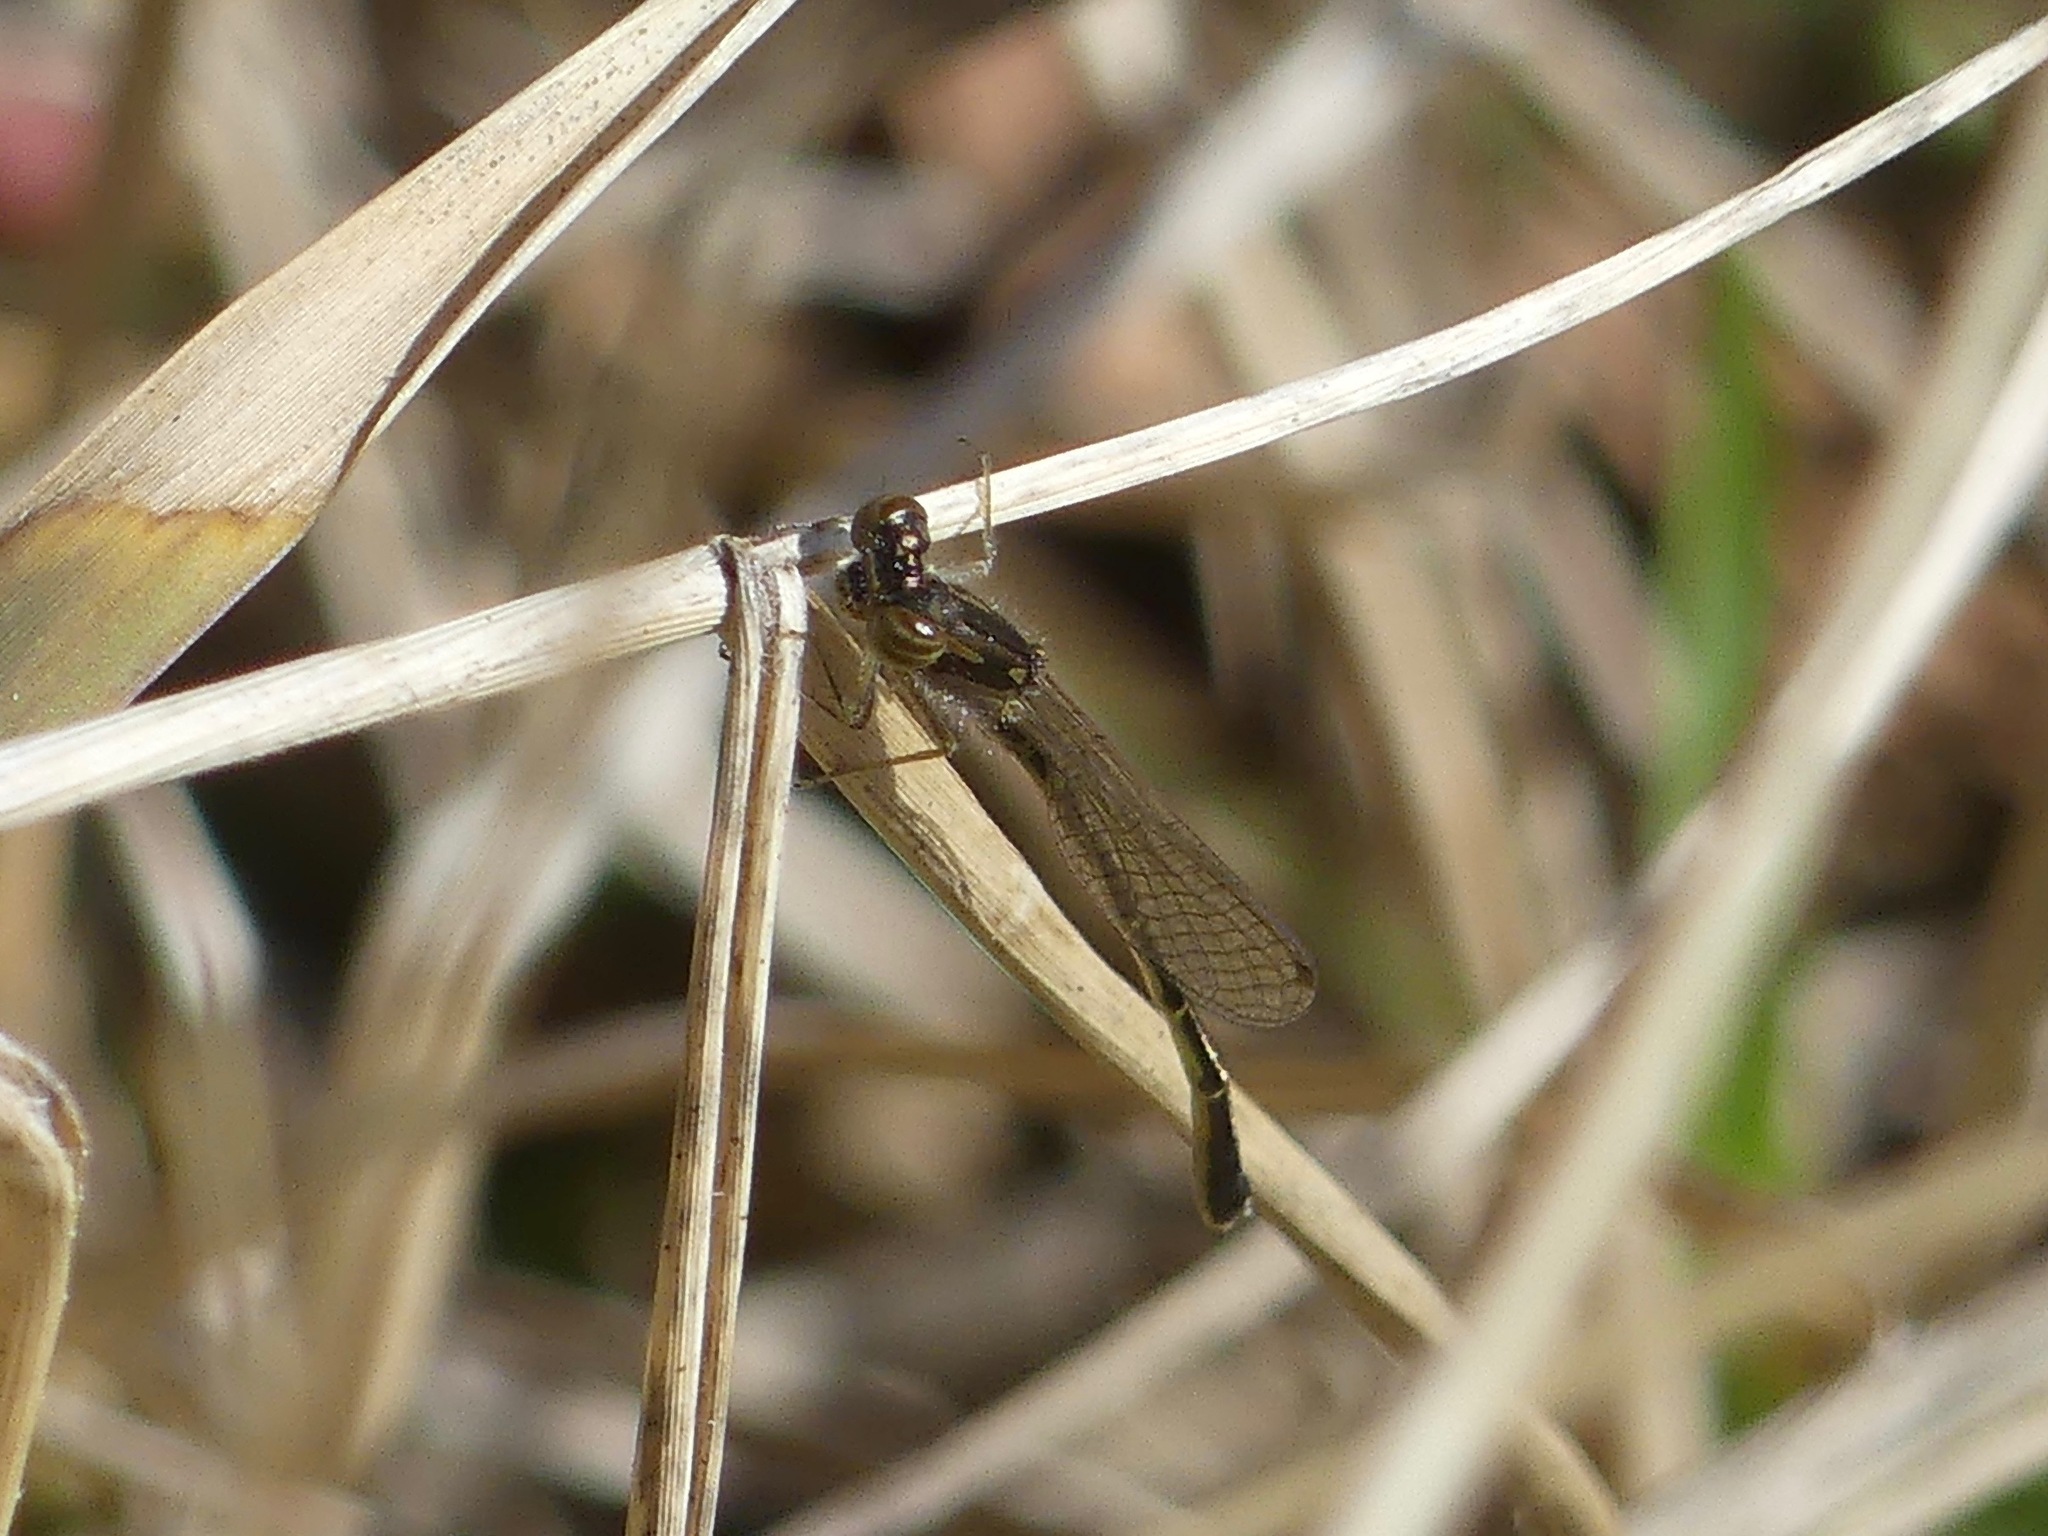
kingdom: Animalia
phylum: Arthropoda
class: Insecta
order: Odonata
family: Coenagrionidae
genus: Ischnura
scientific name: Ischnura posita
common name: Fragile forktail
